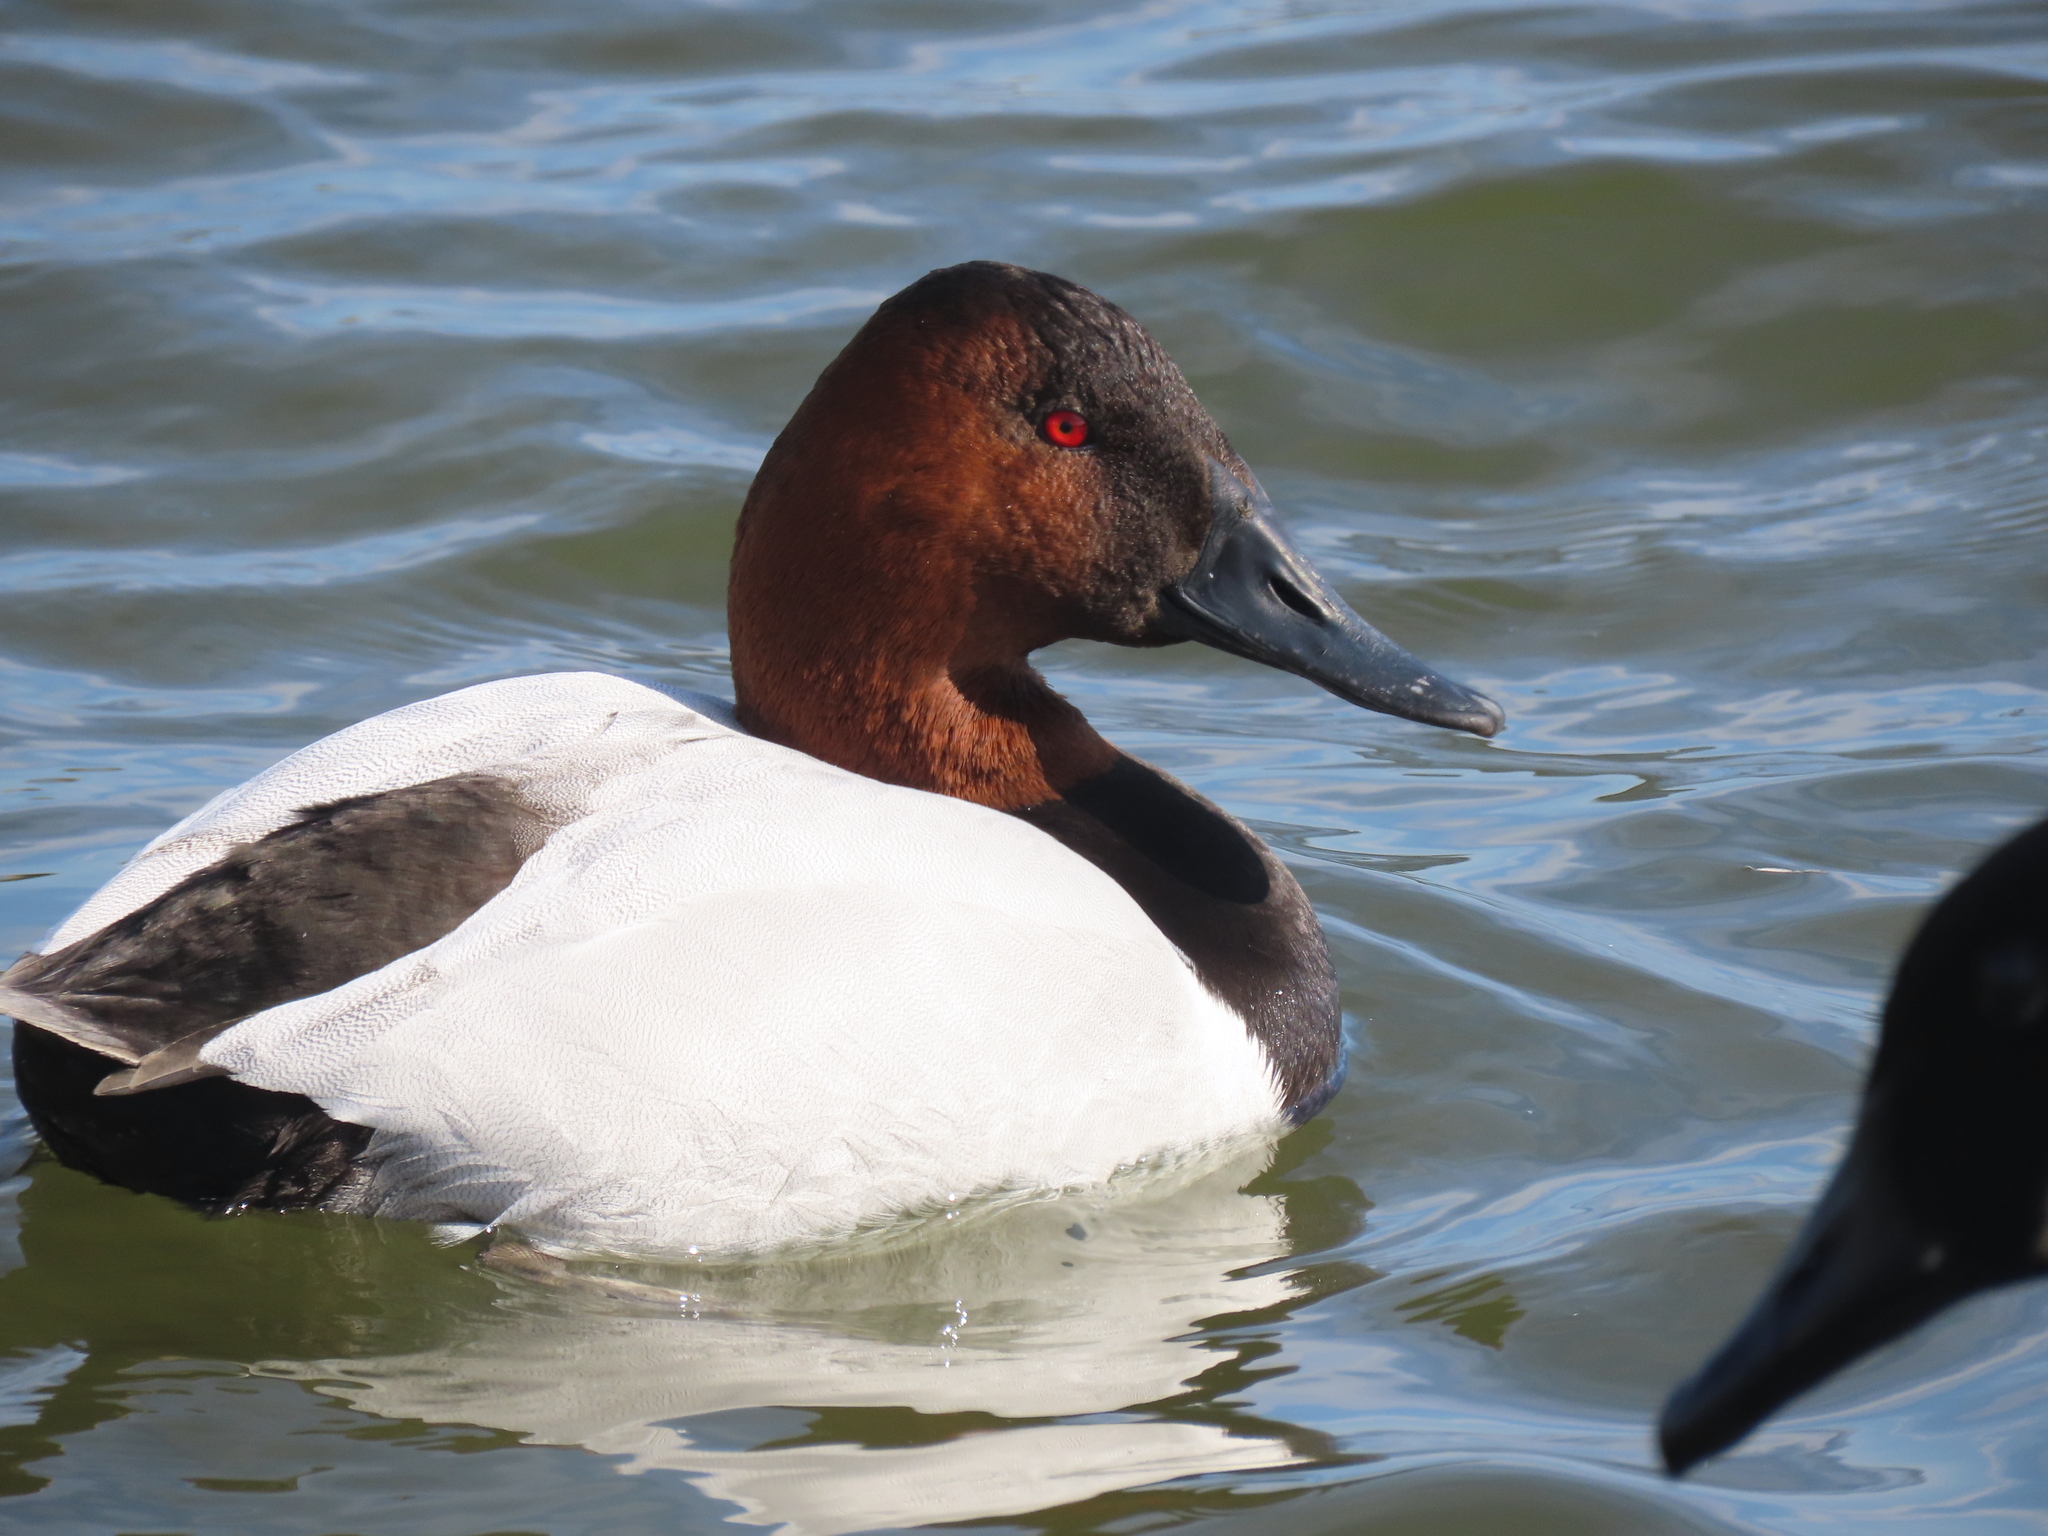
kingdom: Animalia
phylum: Chordata
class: Aves
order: Anseriformes
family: Anatidae
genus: Aythya
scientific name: Aythya valisineria
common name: Canvasback
